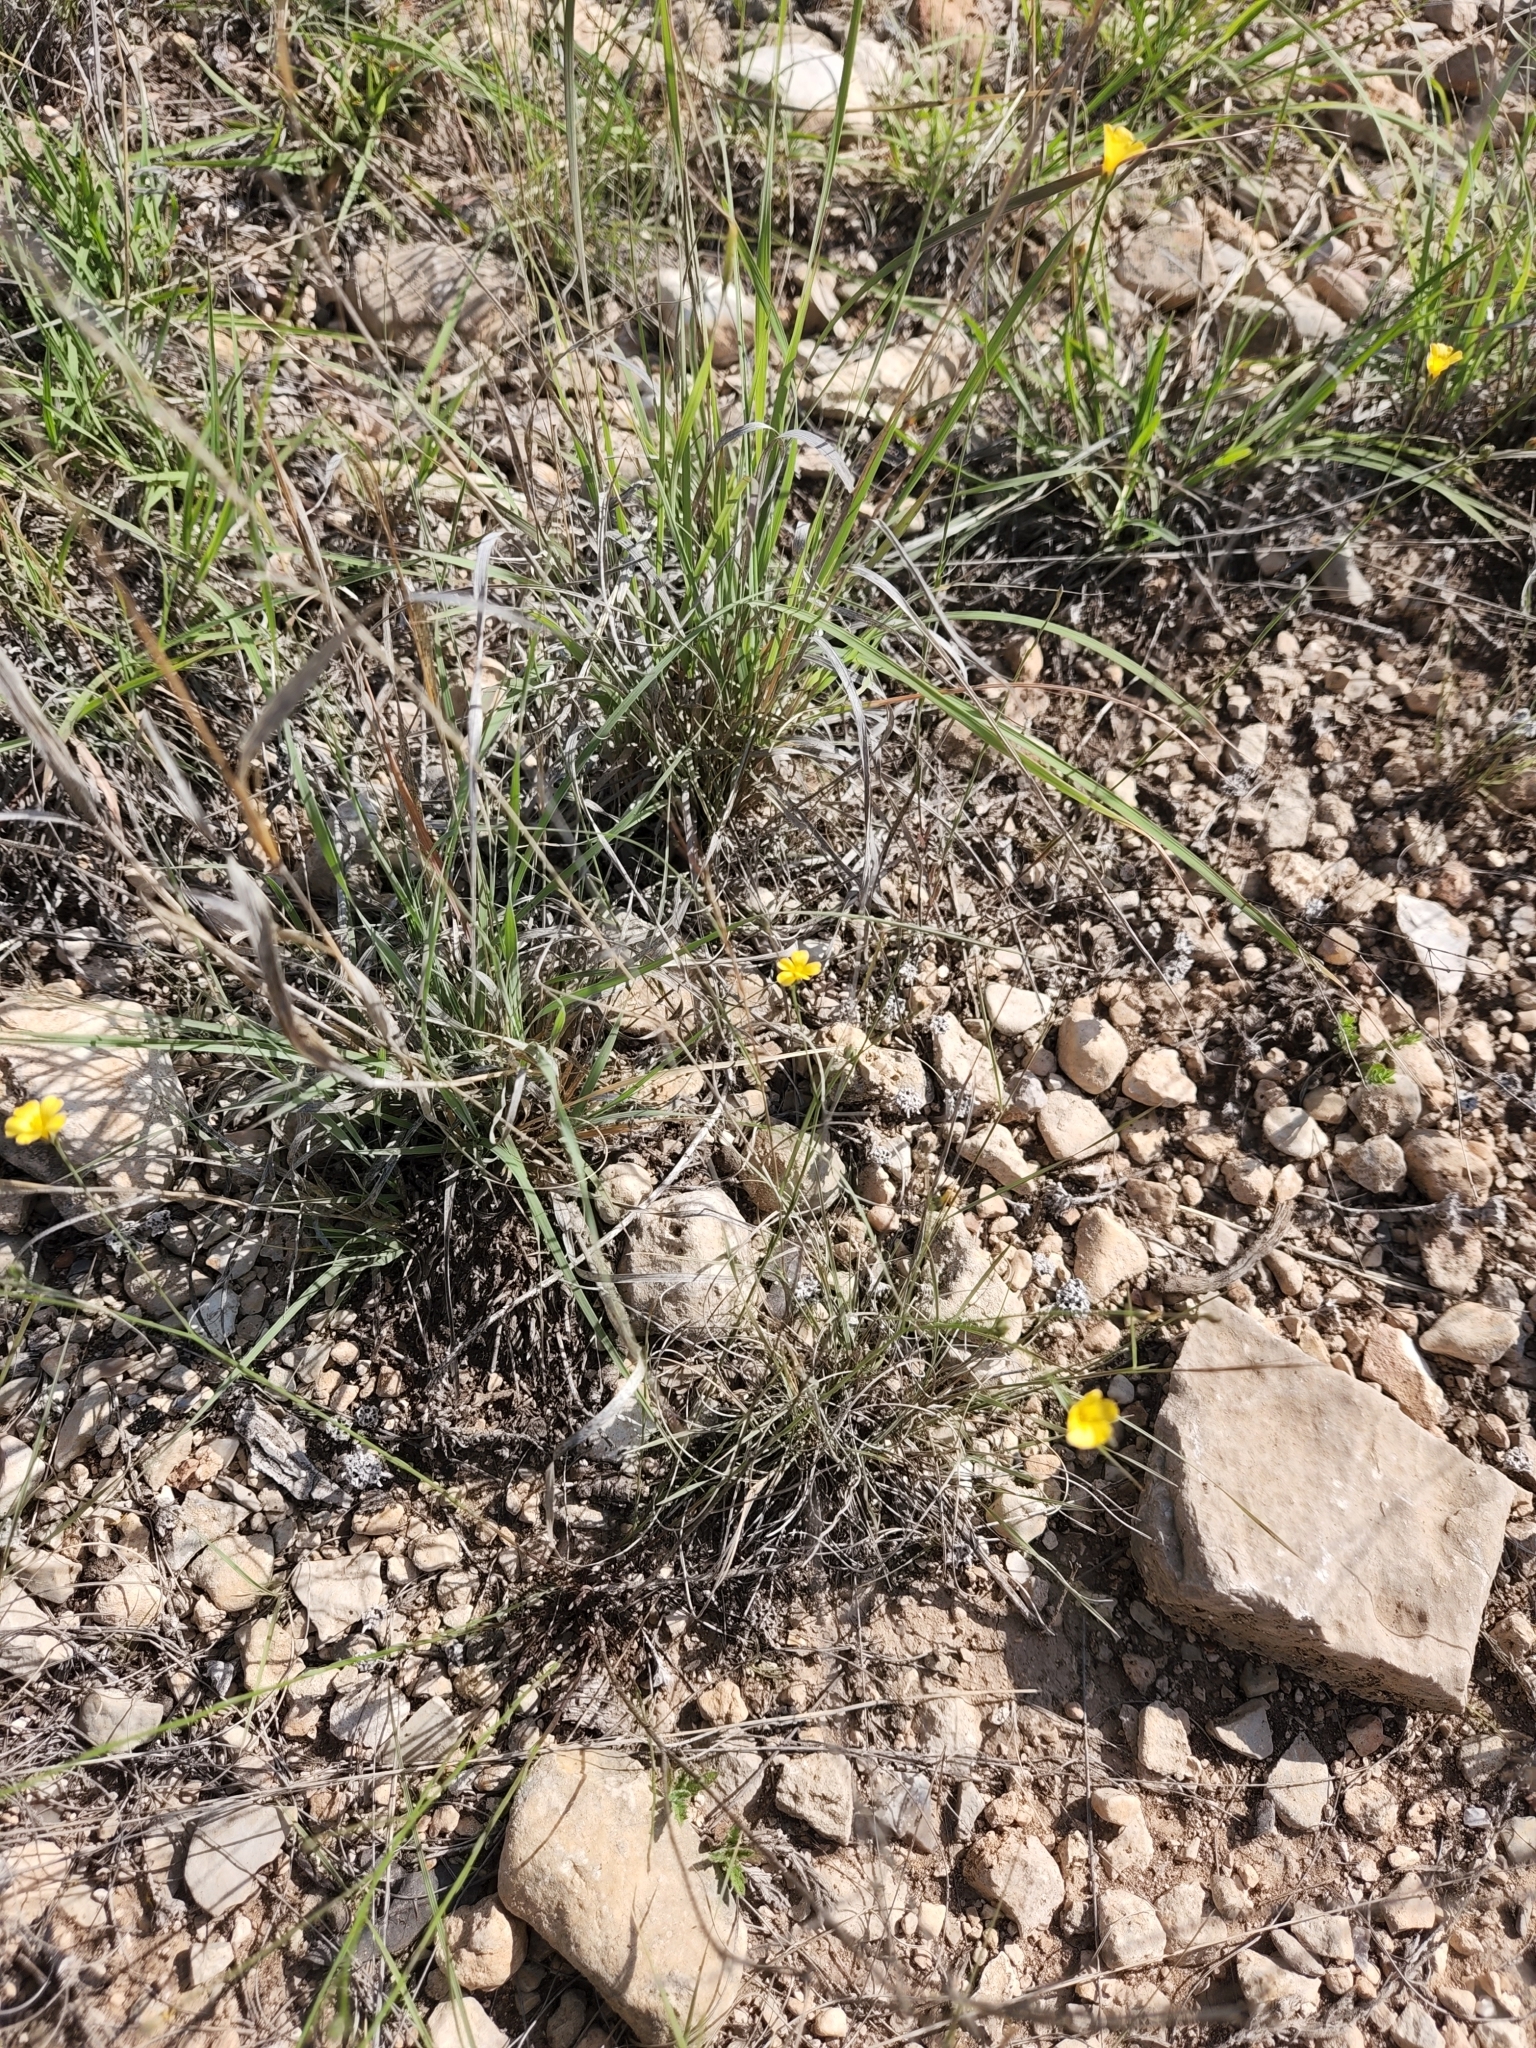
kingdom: Plantae
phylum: Tracheophyta
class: Magnoliopsida
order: Malpighiales
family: Linaceae
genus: Linum
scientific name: Linum rupestre
